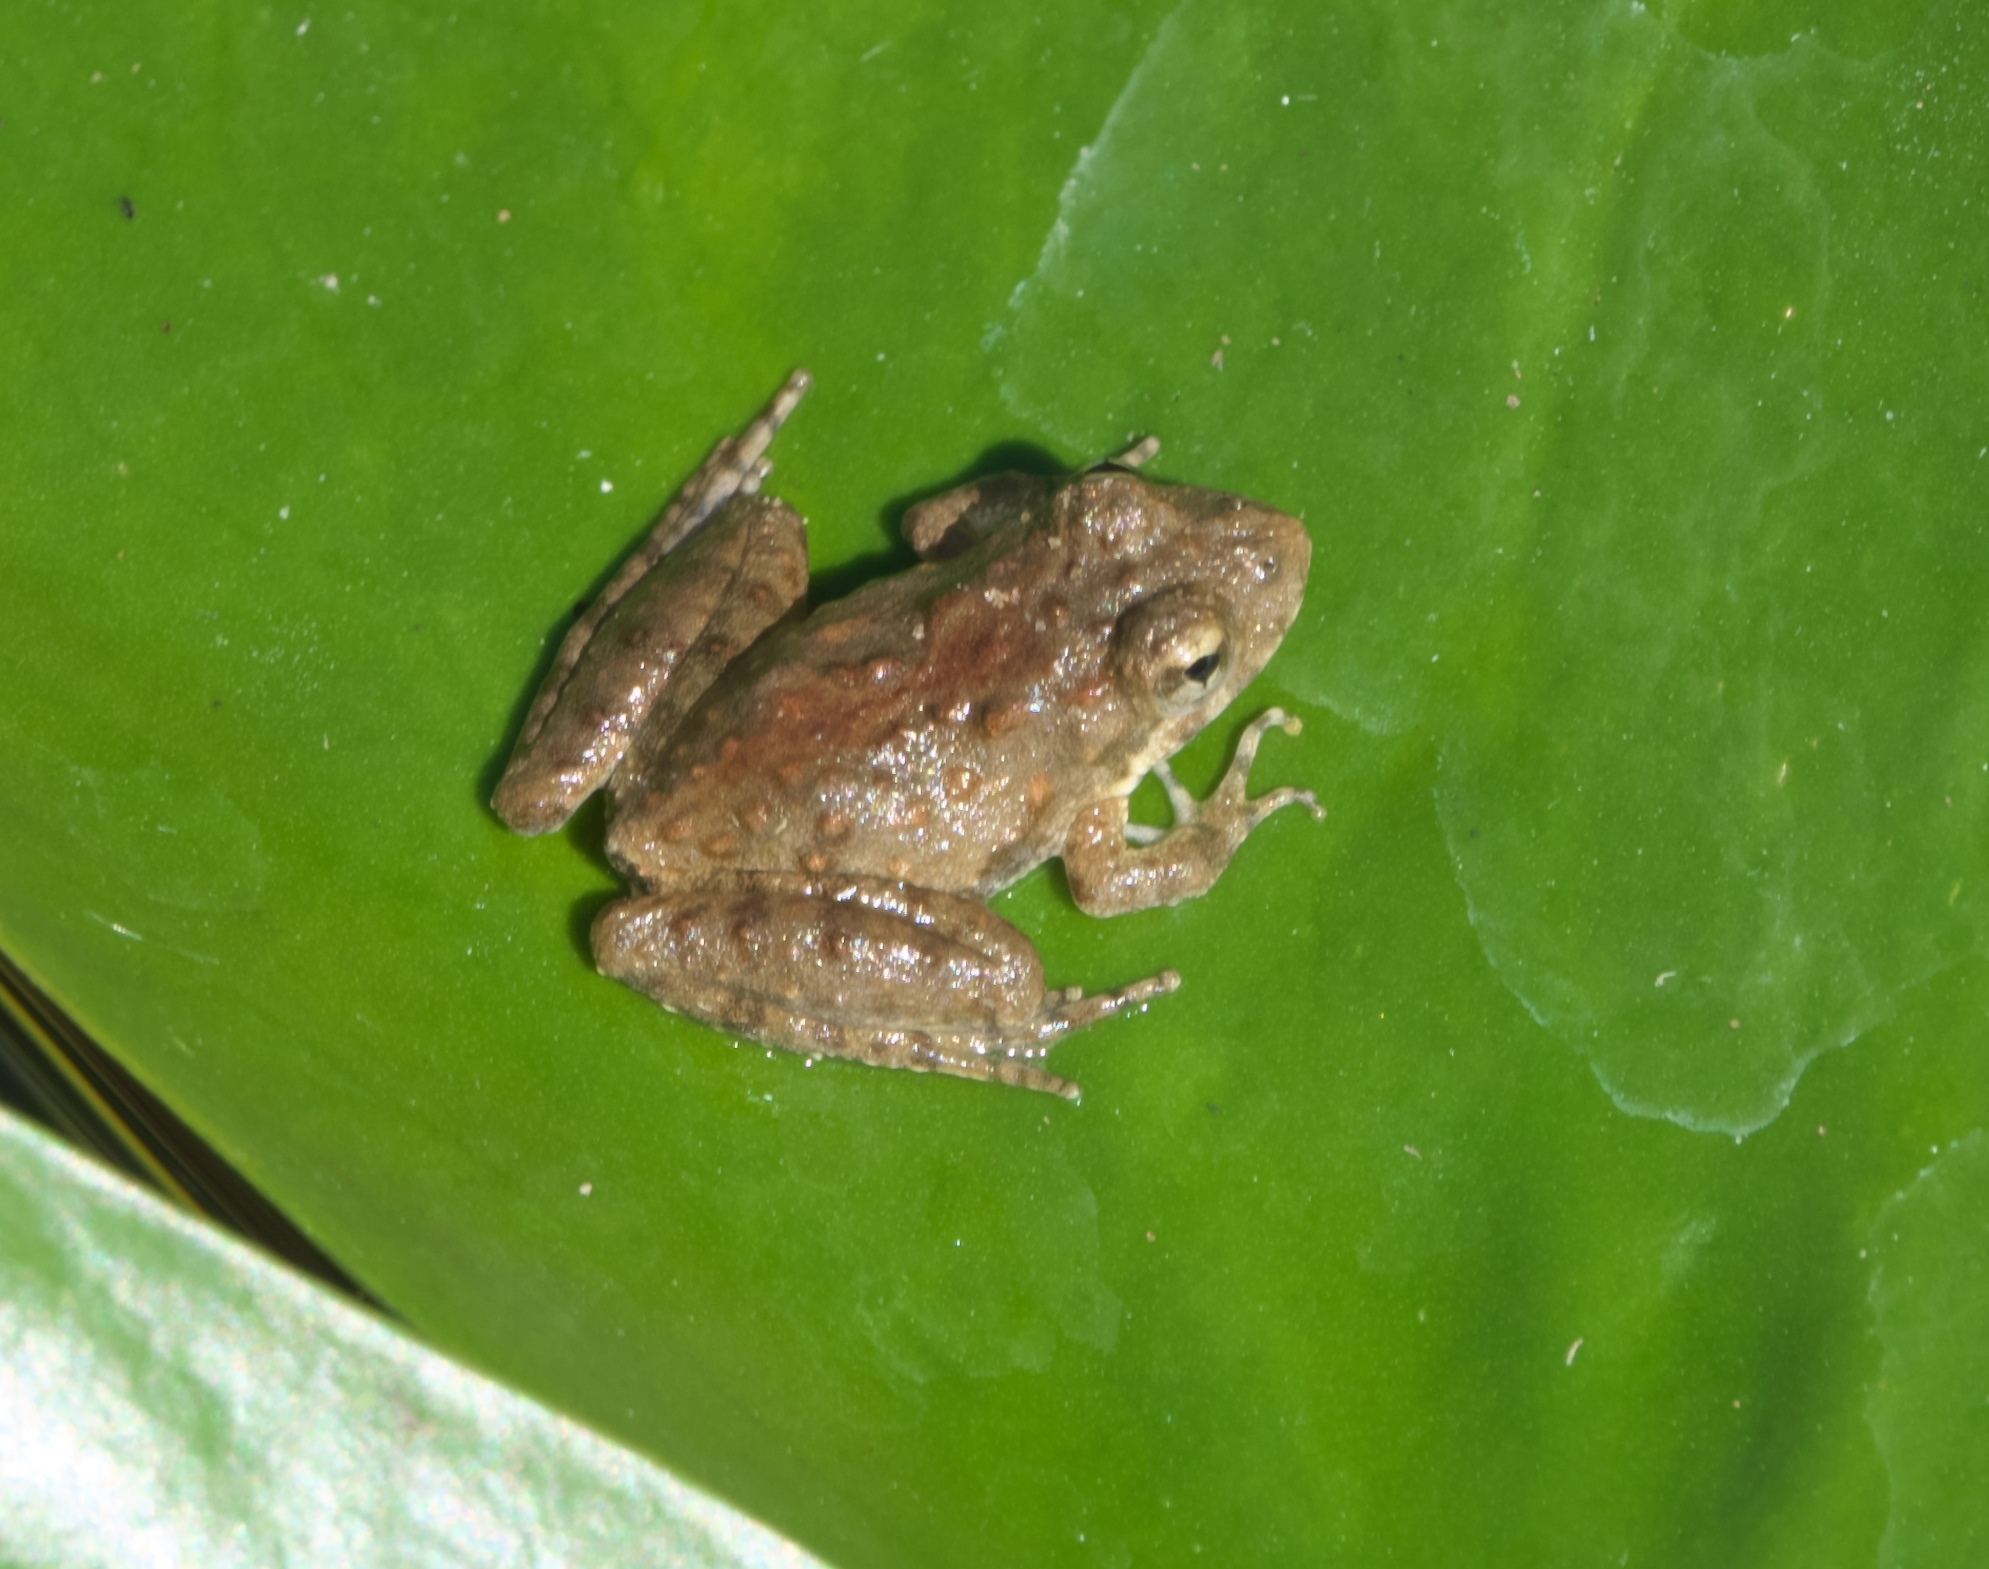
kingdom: Animalia
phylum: Chordata
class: Amphibia
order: Anura
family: Hylidae
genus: Acris
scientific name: Acris blanchardi
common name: Blanchard's cricket frog
